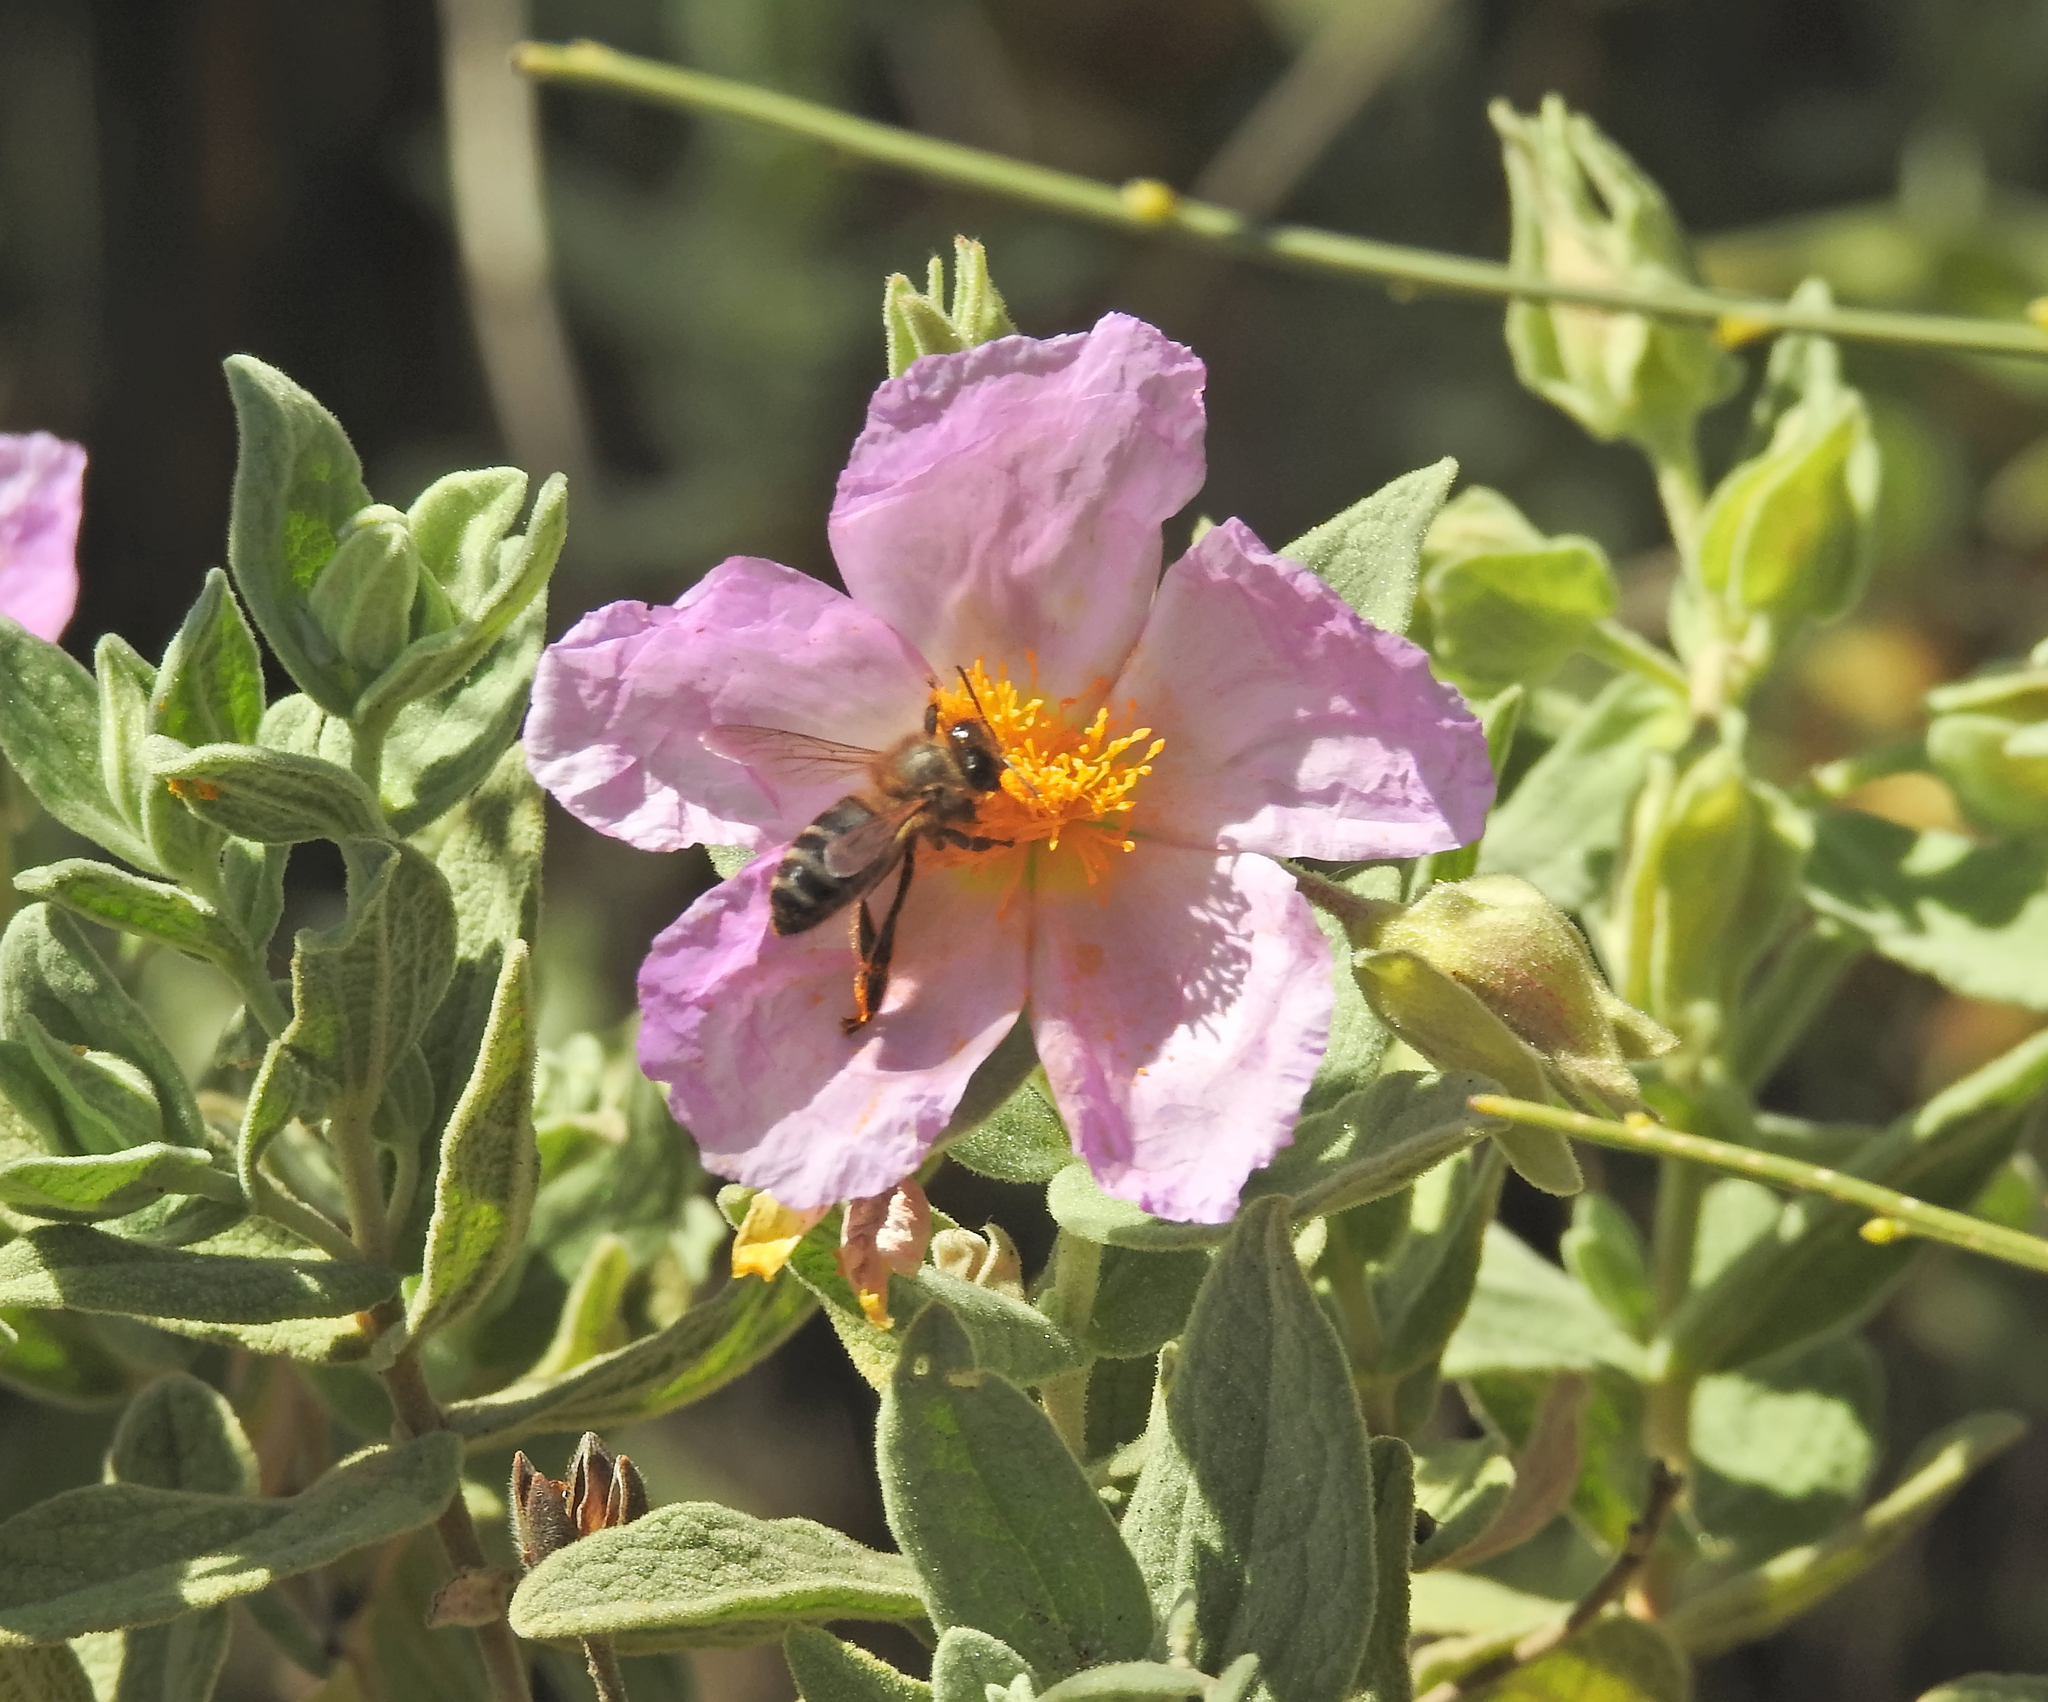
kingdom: Animalia
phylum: Arthropoda
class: Insecta
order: Hymenoptera
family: Apidae
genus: Apis
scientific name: Apis mellifera
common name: Honey bee
